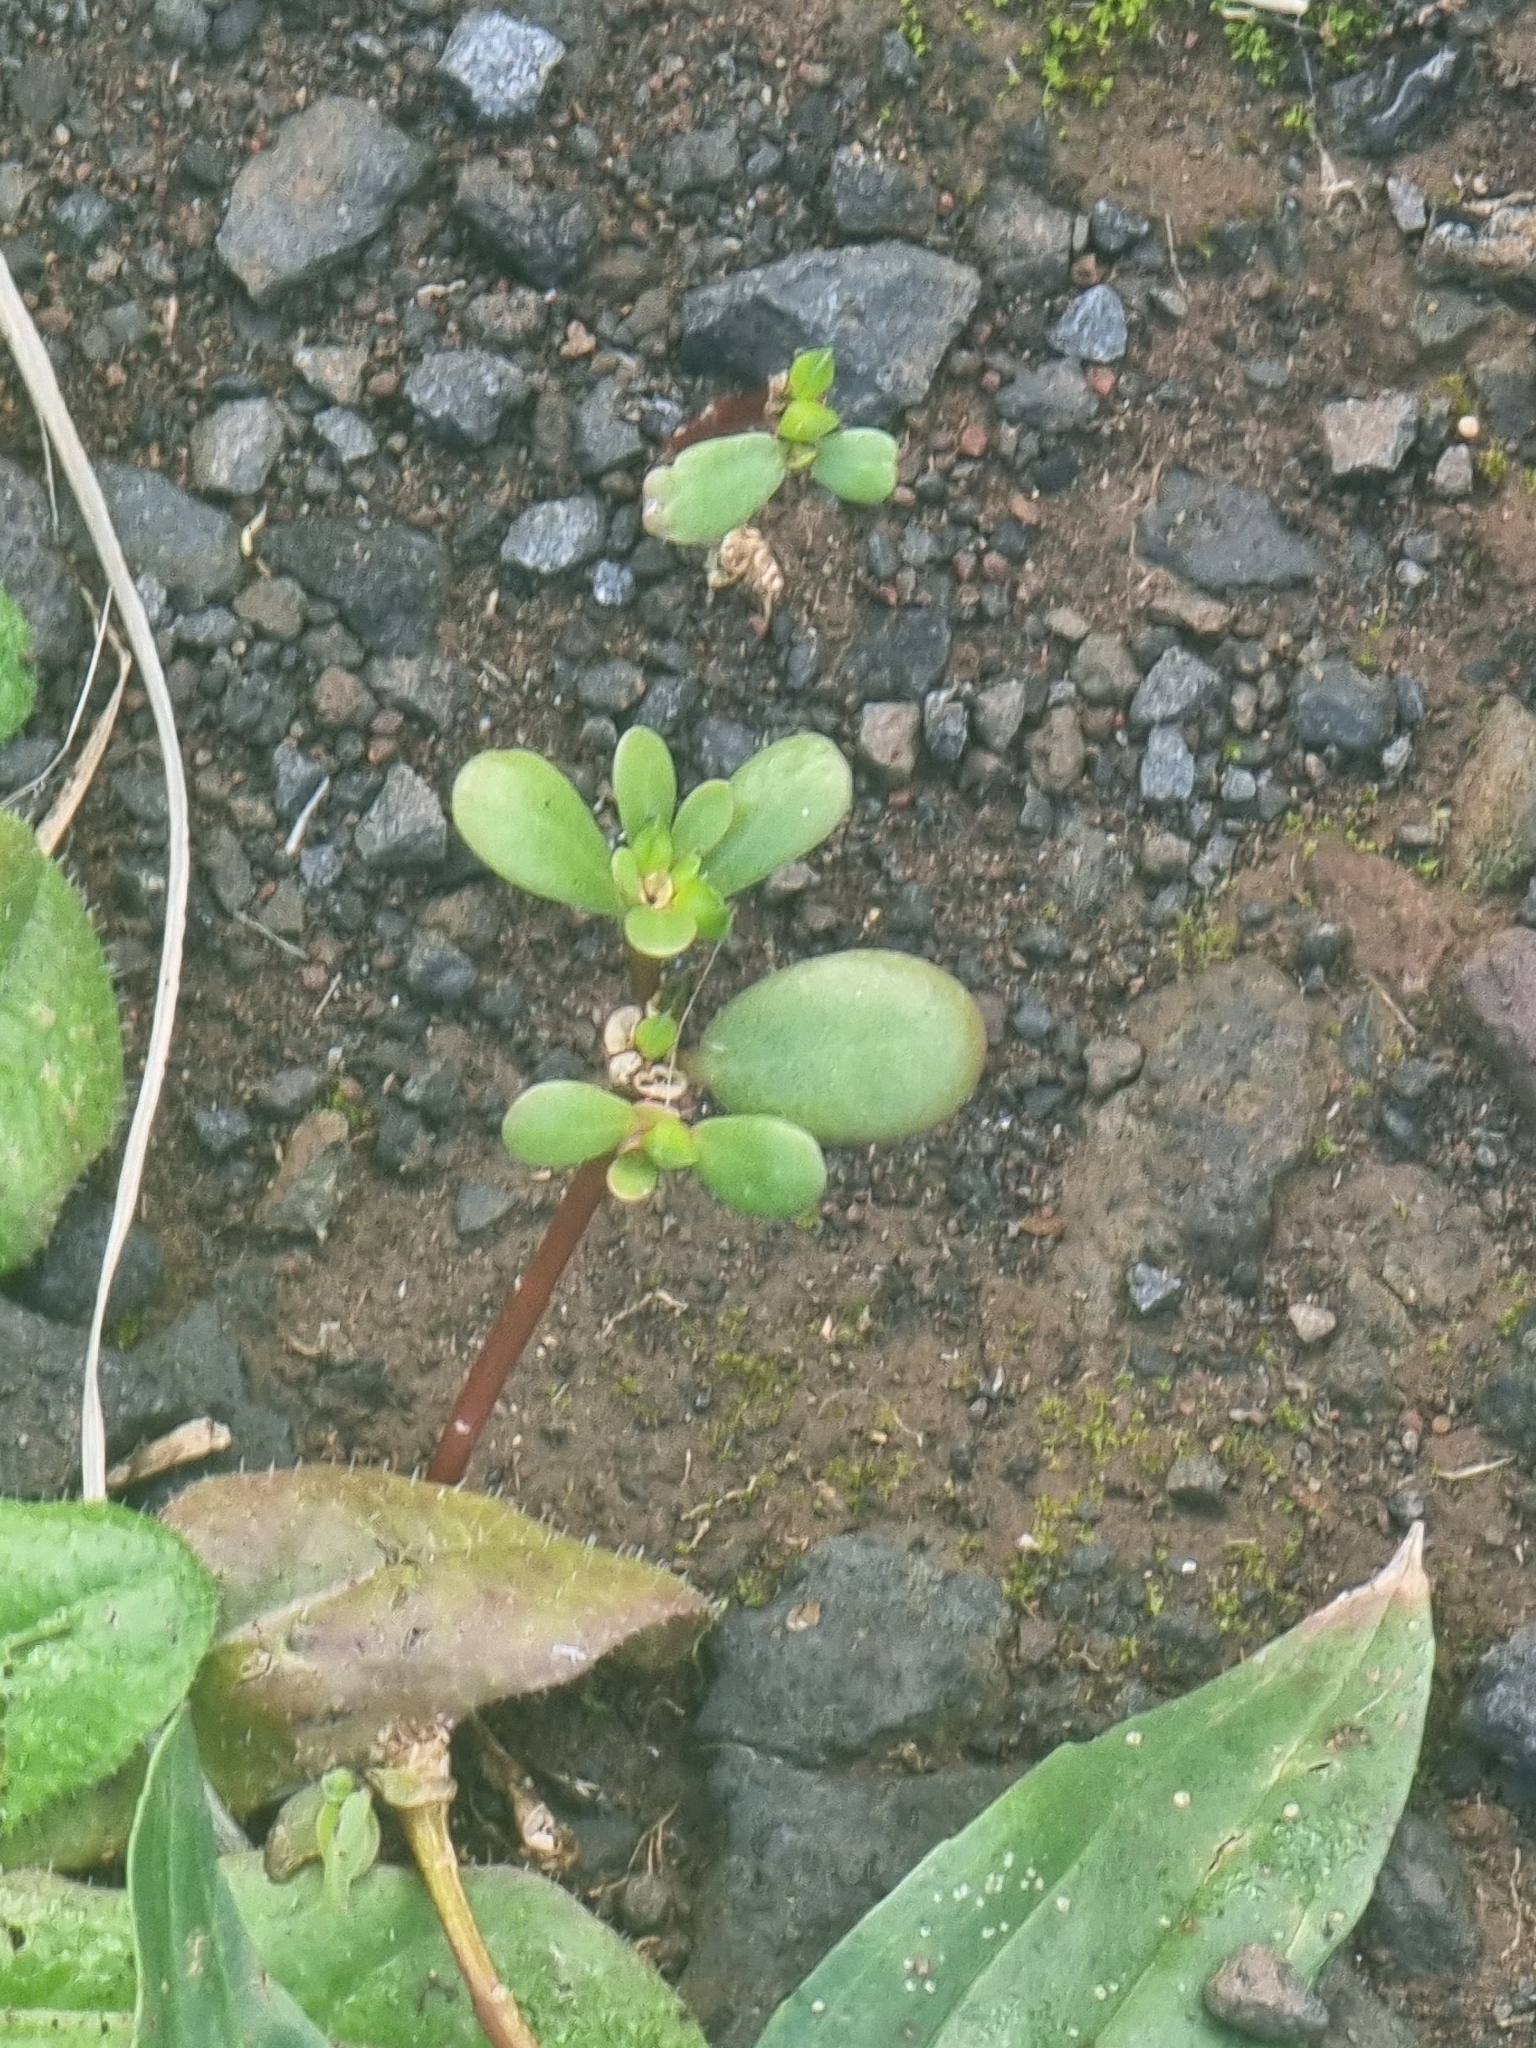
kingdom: Plantae
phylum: Tracheophyta
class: Magnoliopsida
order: Caryophyllales
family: Portulacaceae
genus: Portulaca
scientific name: Portulaca oleracea
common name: Common purslane
